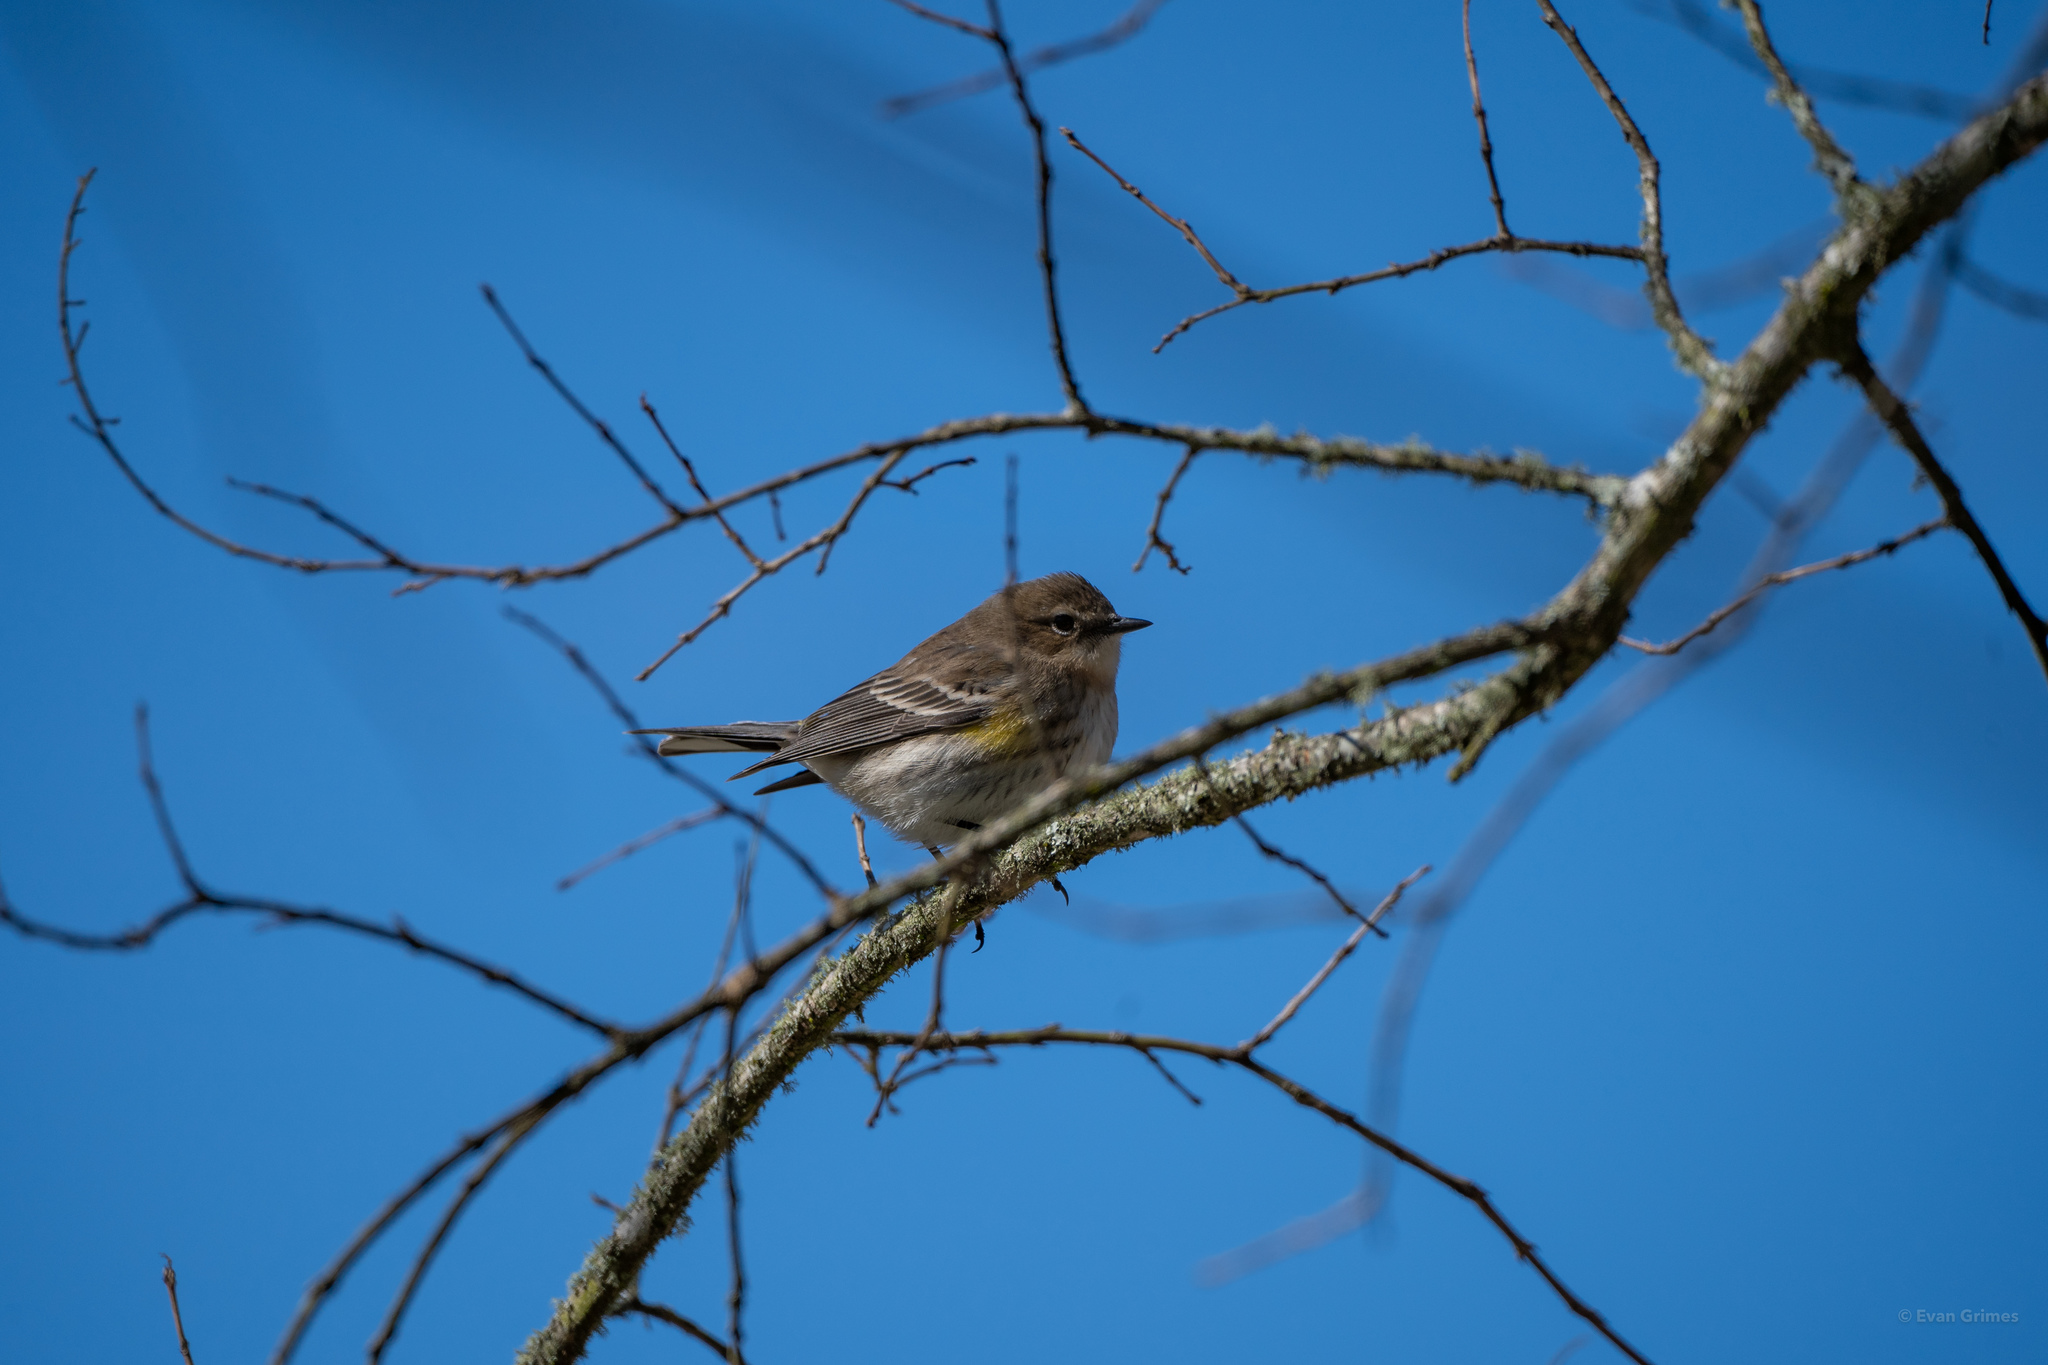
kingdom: Animalia
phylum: Chordata
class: Aves
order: Passeriformes
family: Parulidae
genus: Setophaga
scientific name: Setophaga coronata
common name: Myrtle warbler
